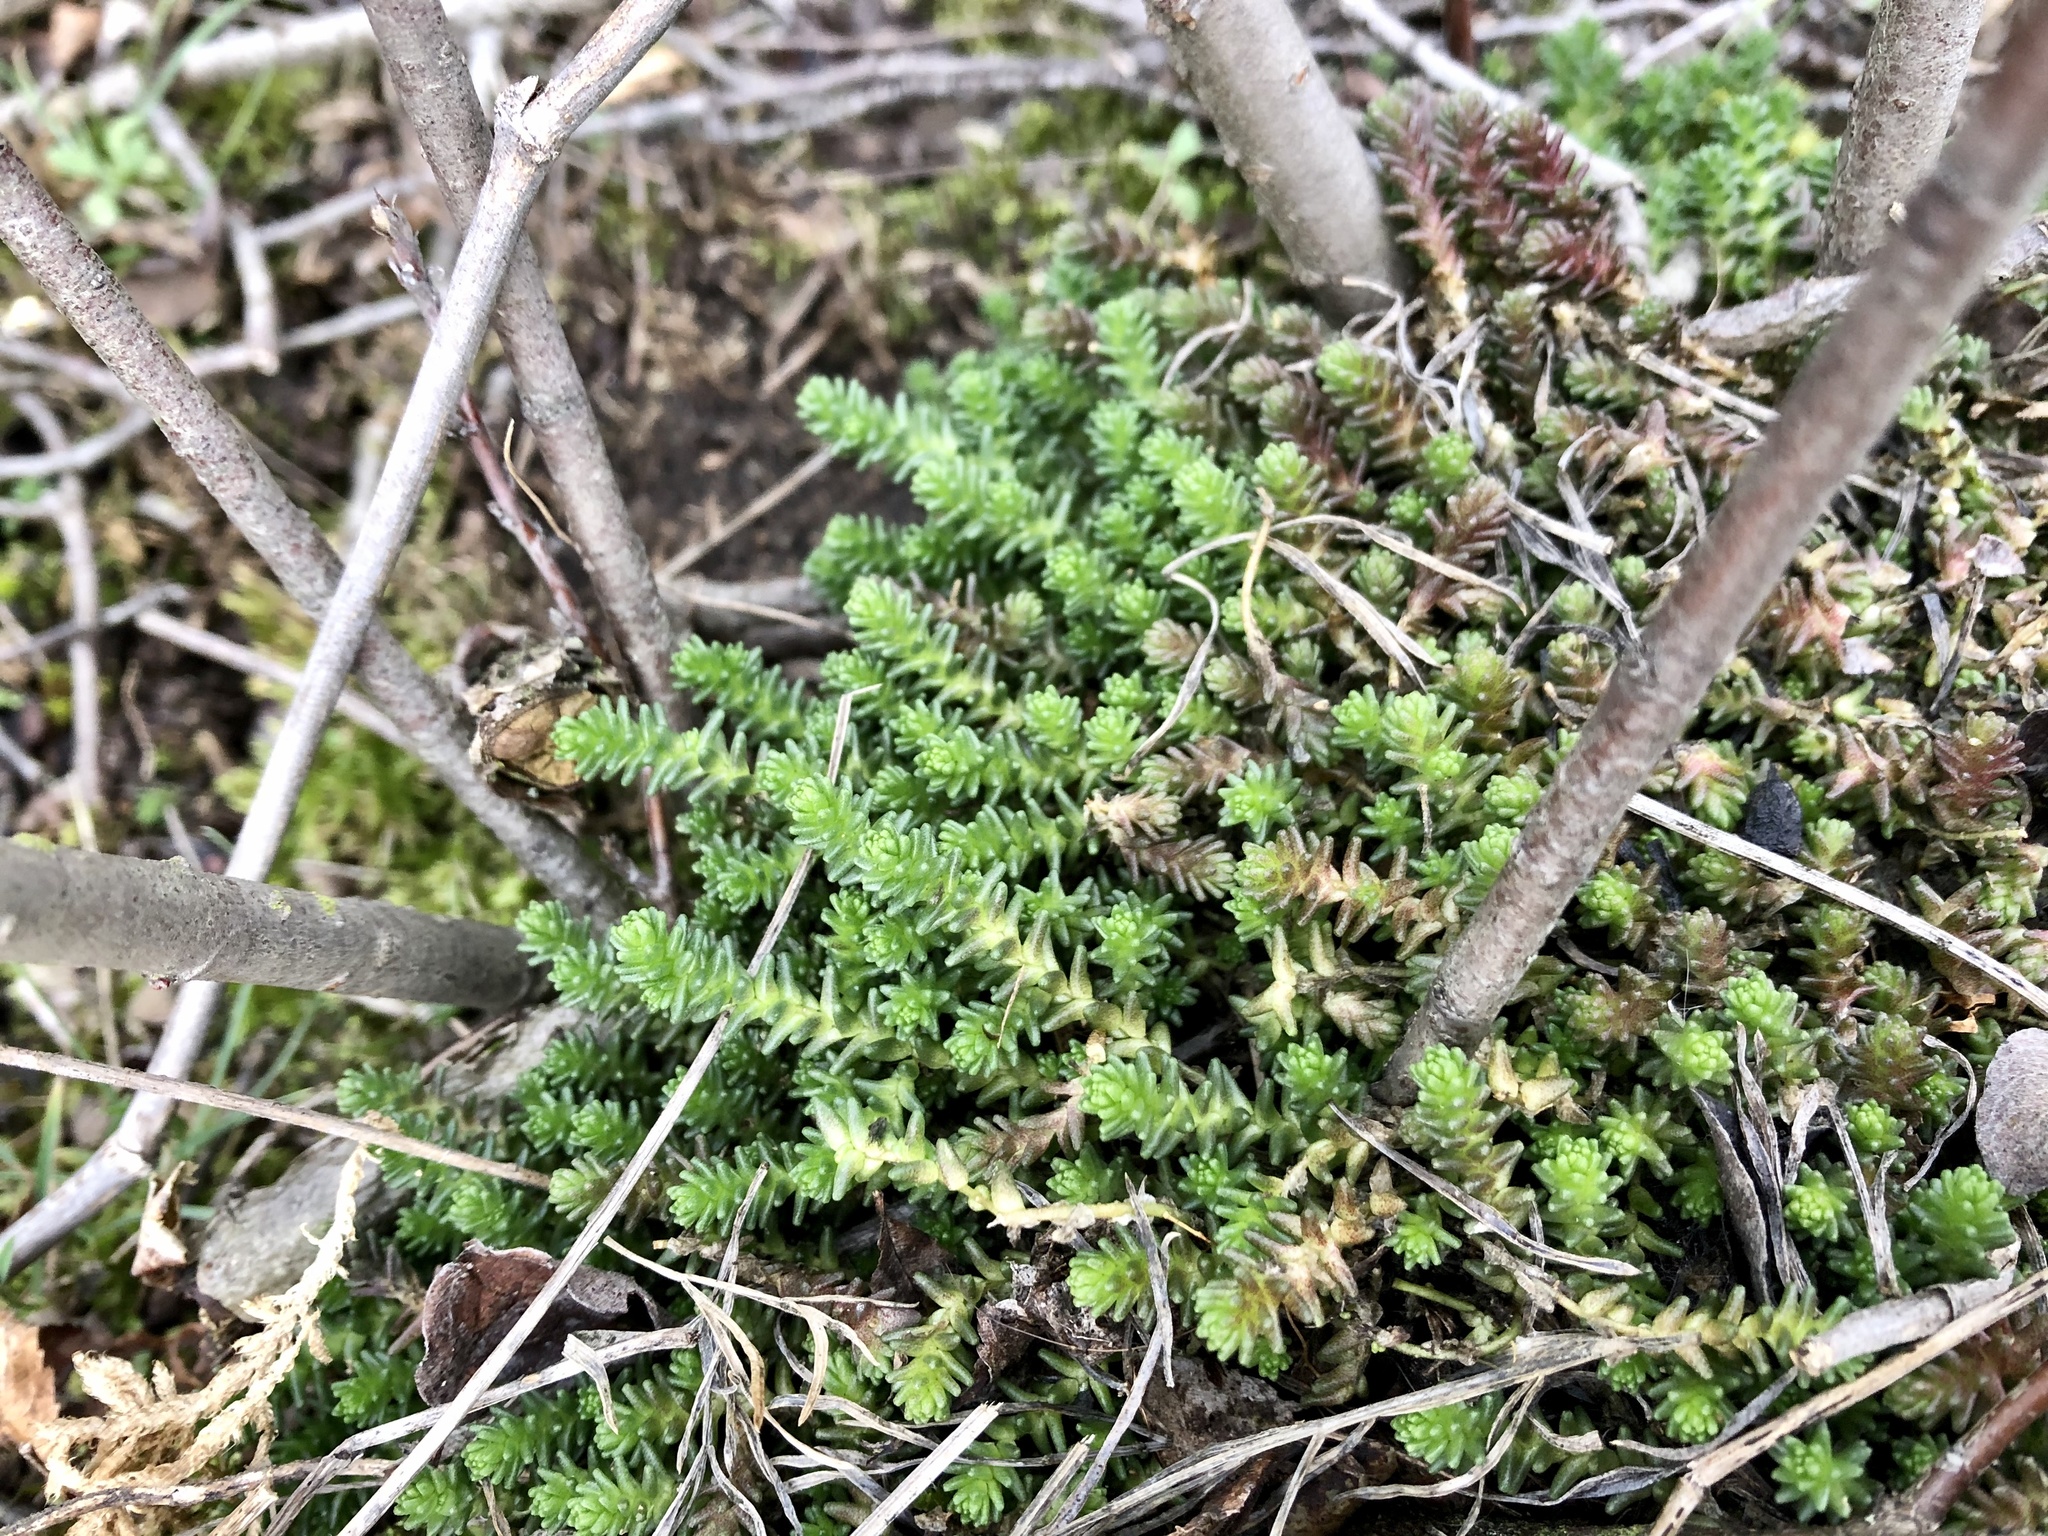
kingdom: Plantae
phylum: Tracheophyta
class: Magnoliopsida
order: Saxifragales
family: Crassulaceae
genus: Sedum
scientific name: Sedum acre
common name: Biting stonecrop
